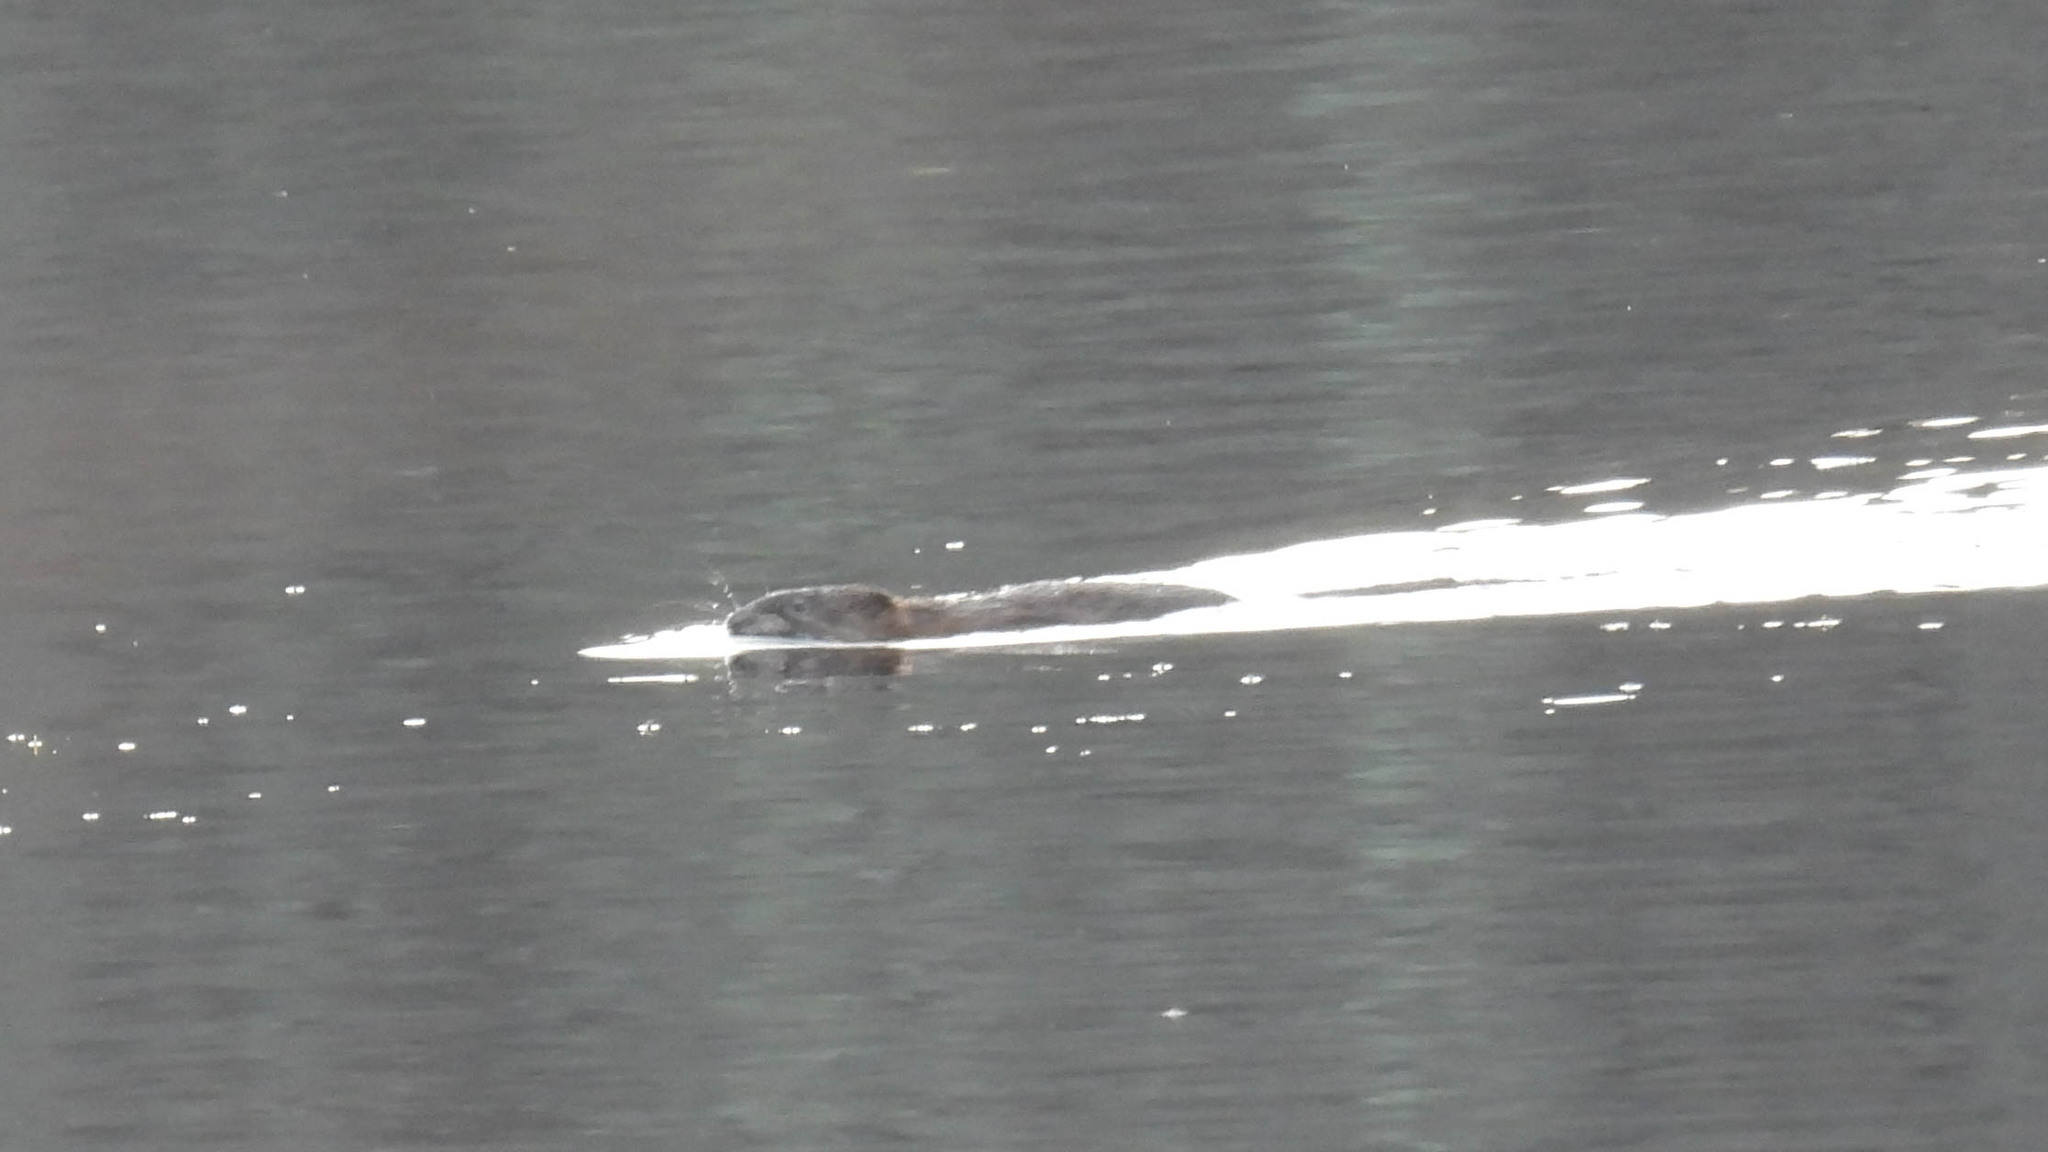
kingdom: Animalia
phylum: Chordata
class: Mammalia
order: Rodentia
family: Cricetidae
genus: Ondatra
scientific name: Ondatra zibethicus
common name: Muskrat
